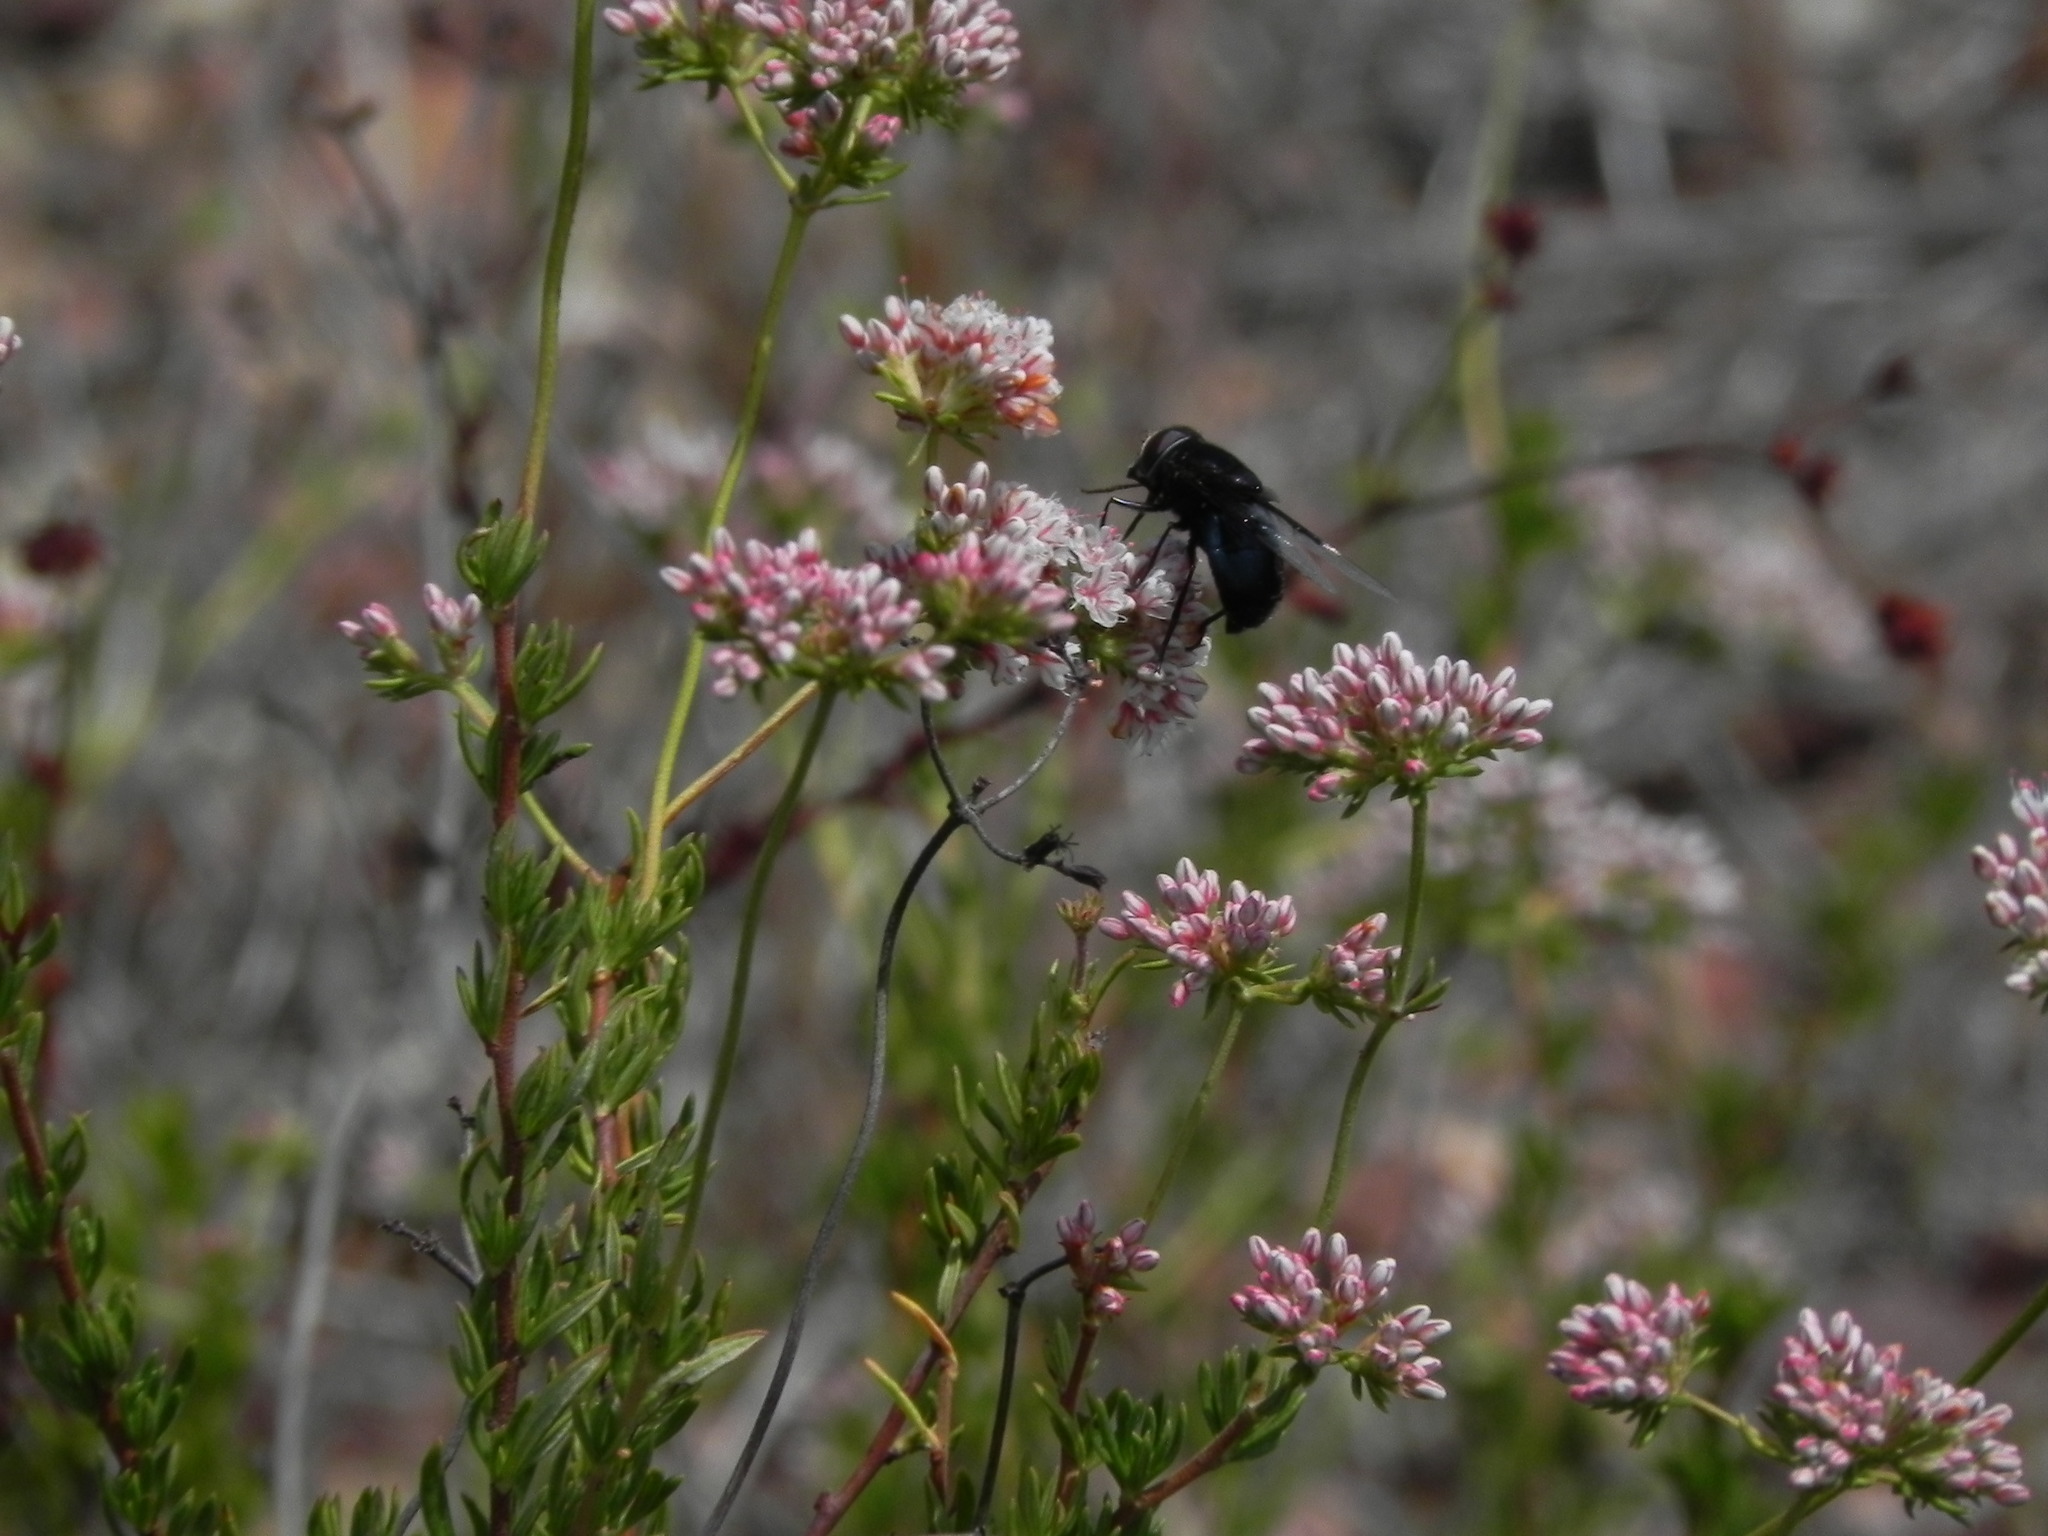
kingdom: Animalia
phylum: Arthropoda
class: Insecta
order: Diptera
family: Syrphidae
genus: Copestylum
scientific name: Copestylum
